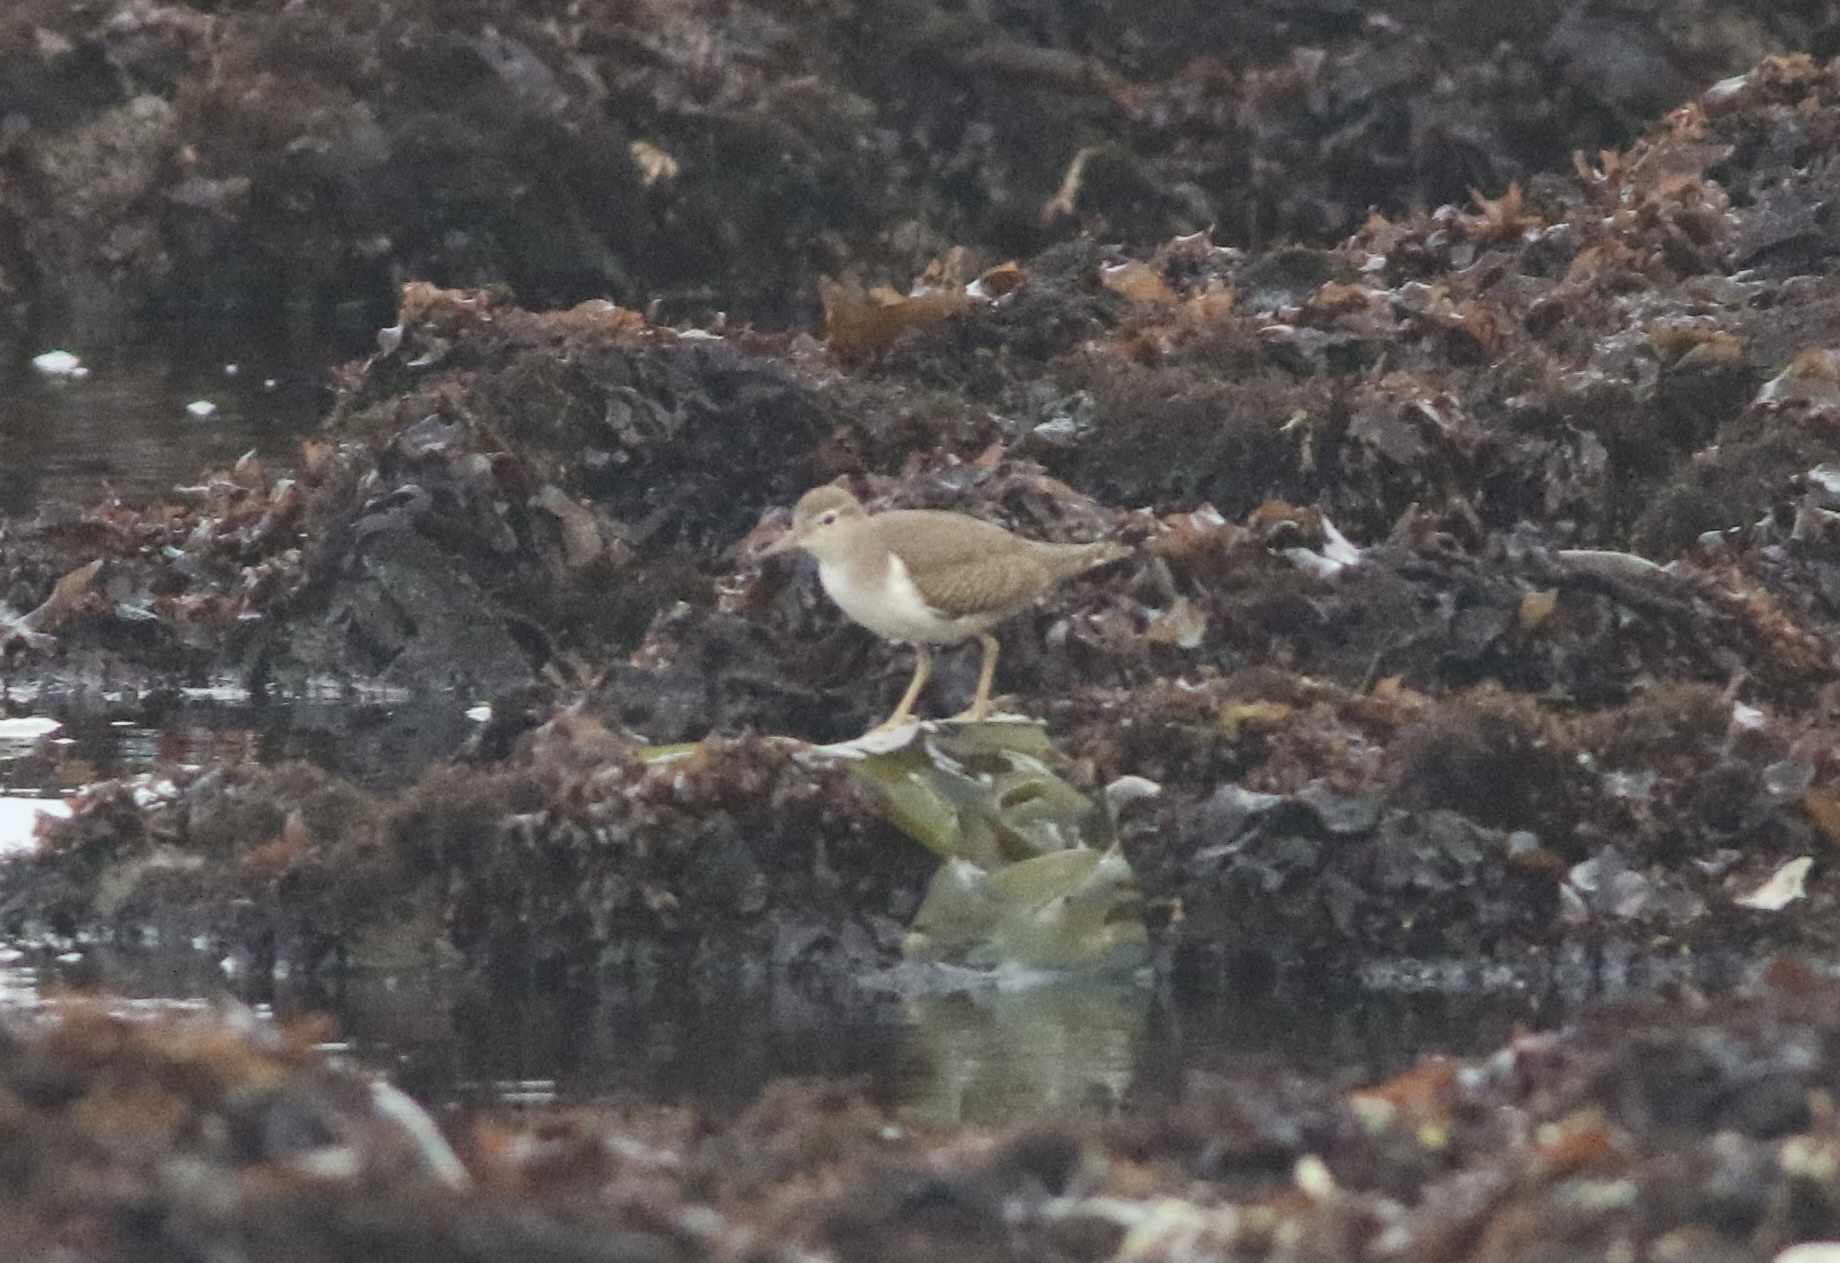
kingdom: Animalia
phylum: Chordata
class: Aves
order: Charadriiformes
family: Scolopacidae
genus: Actitis
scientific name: Actitis macularius
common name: Spotted sandpiper
